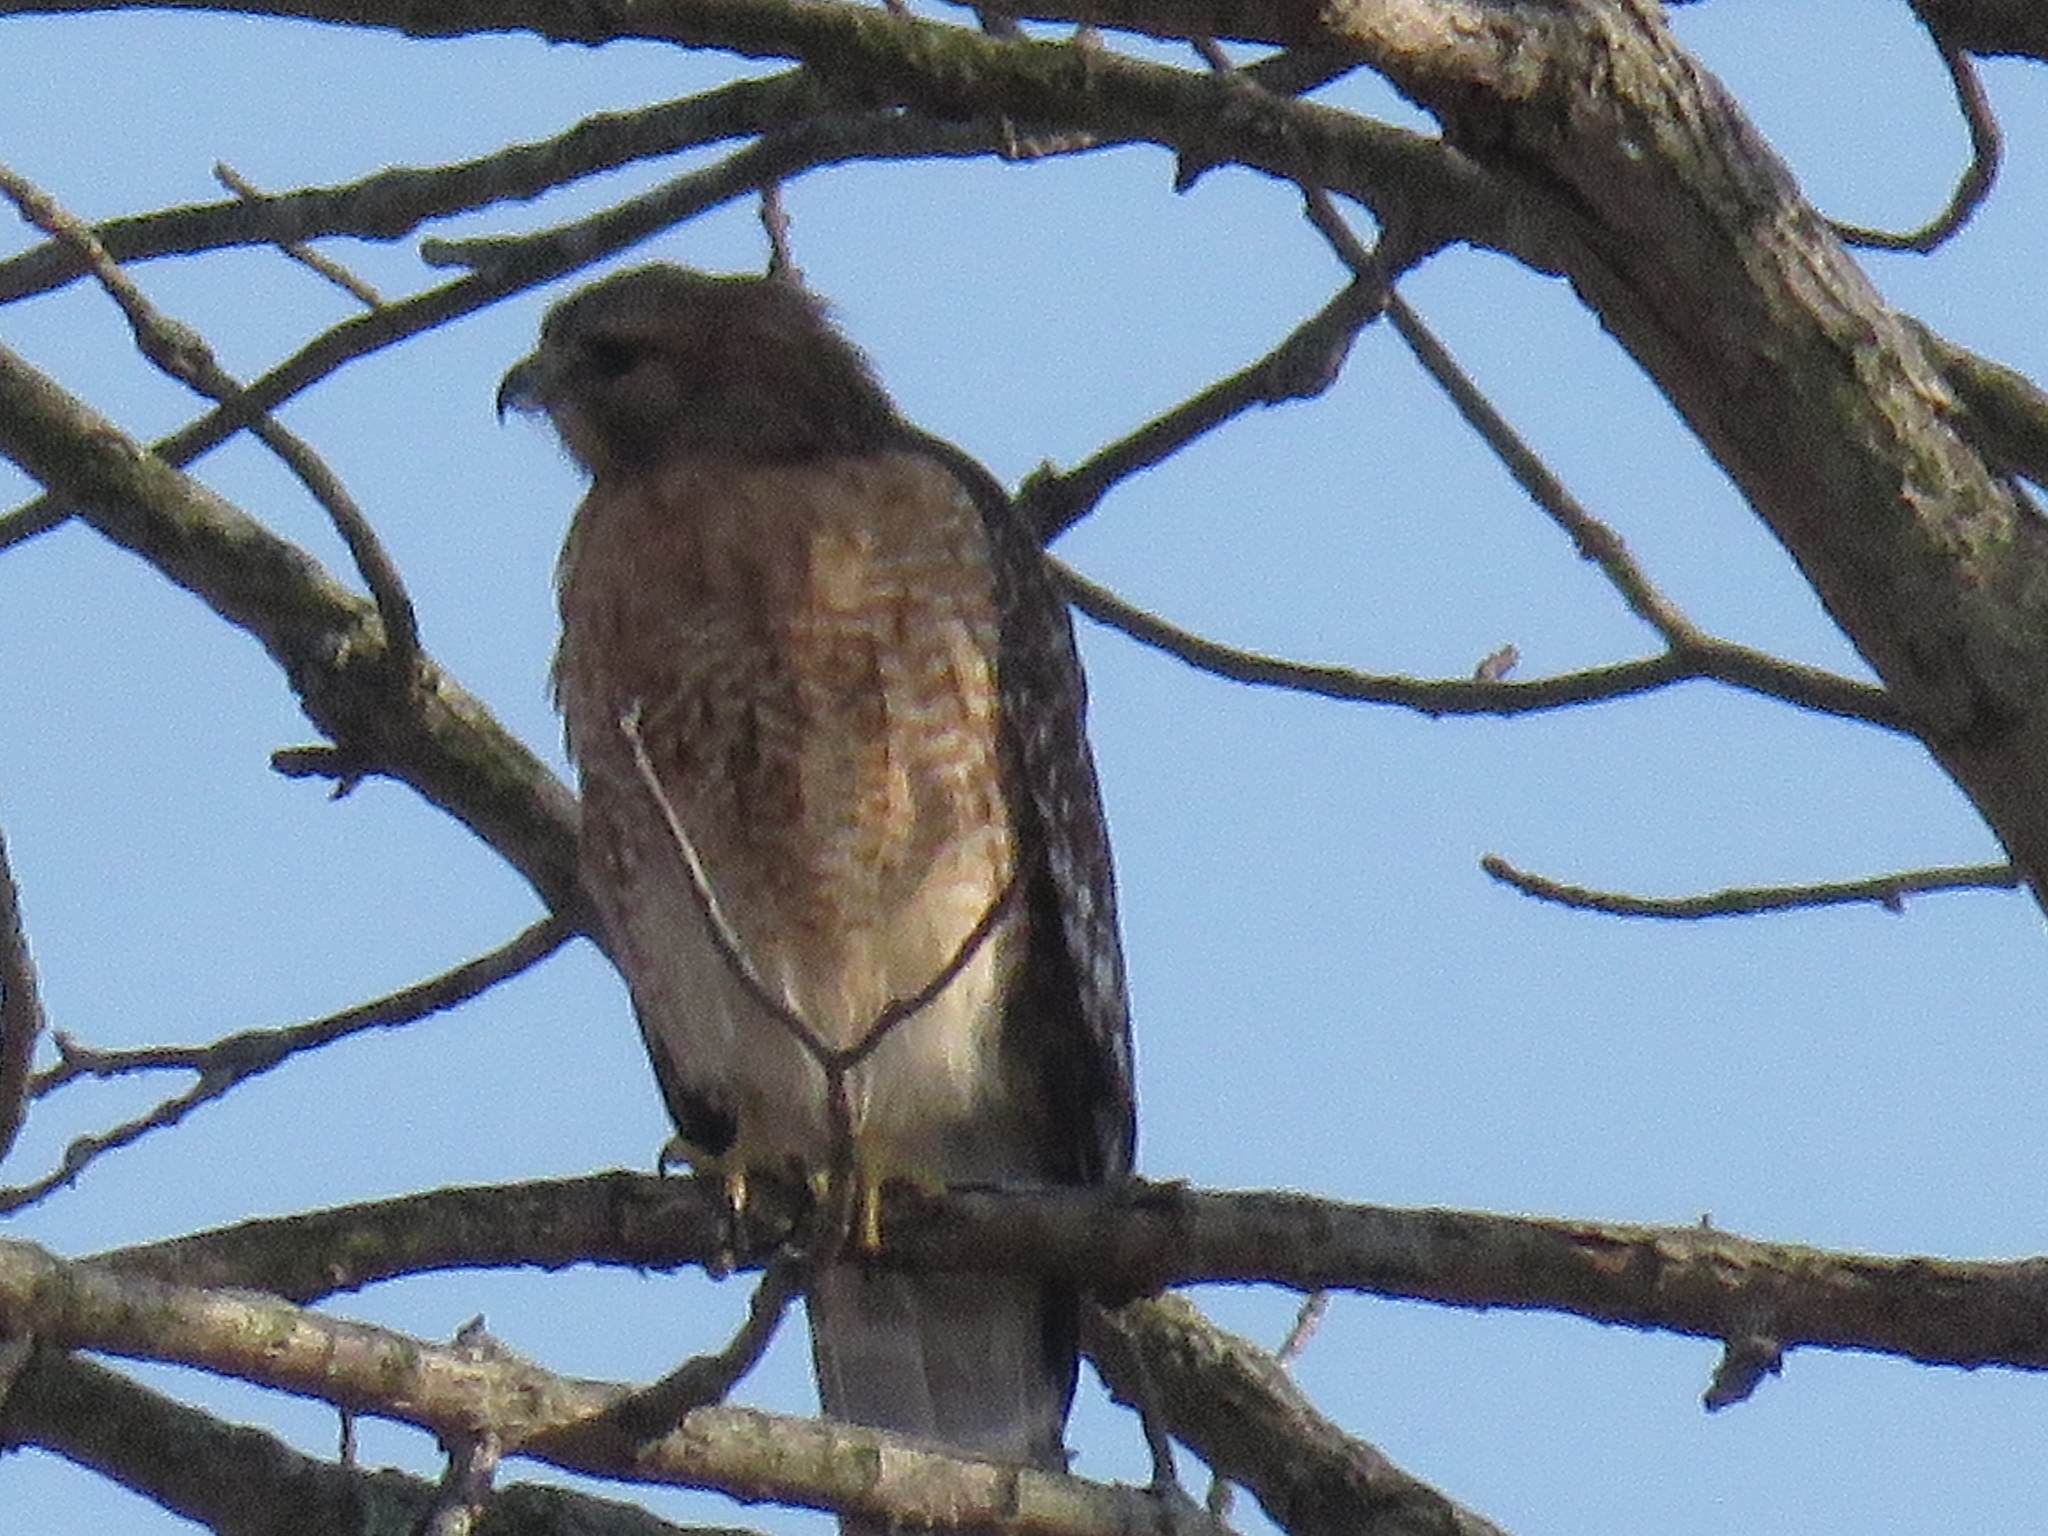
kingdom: Animalia
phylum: Chordata
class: Aves
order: Accipitriformes
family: Accipitridae
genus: Buteo
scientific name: Buteo lineatus
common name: Red-shouldered hawk
